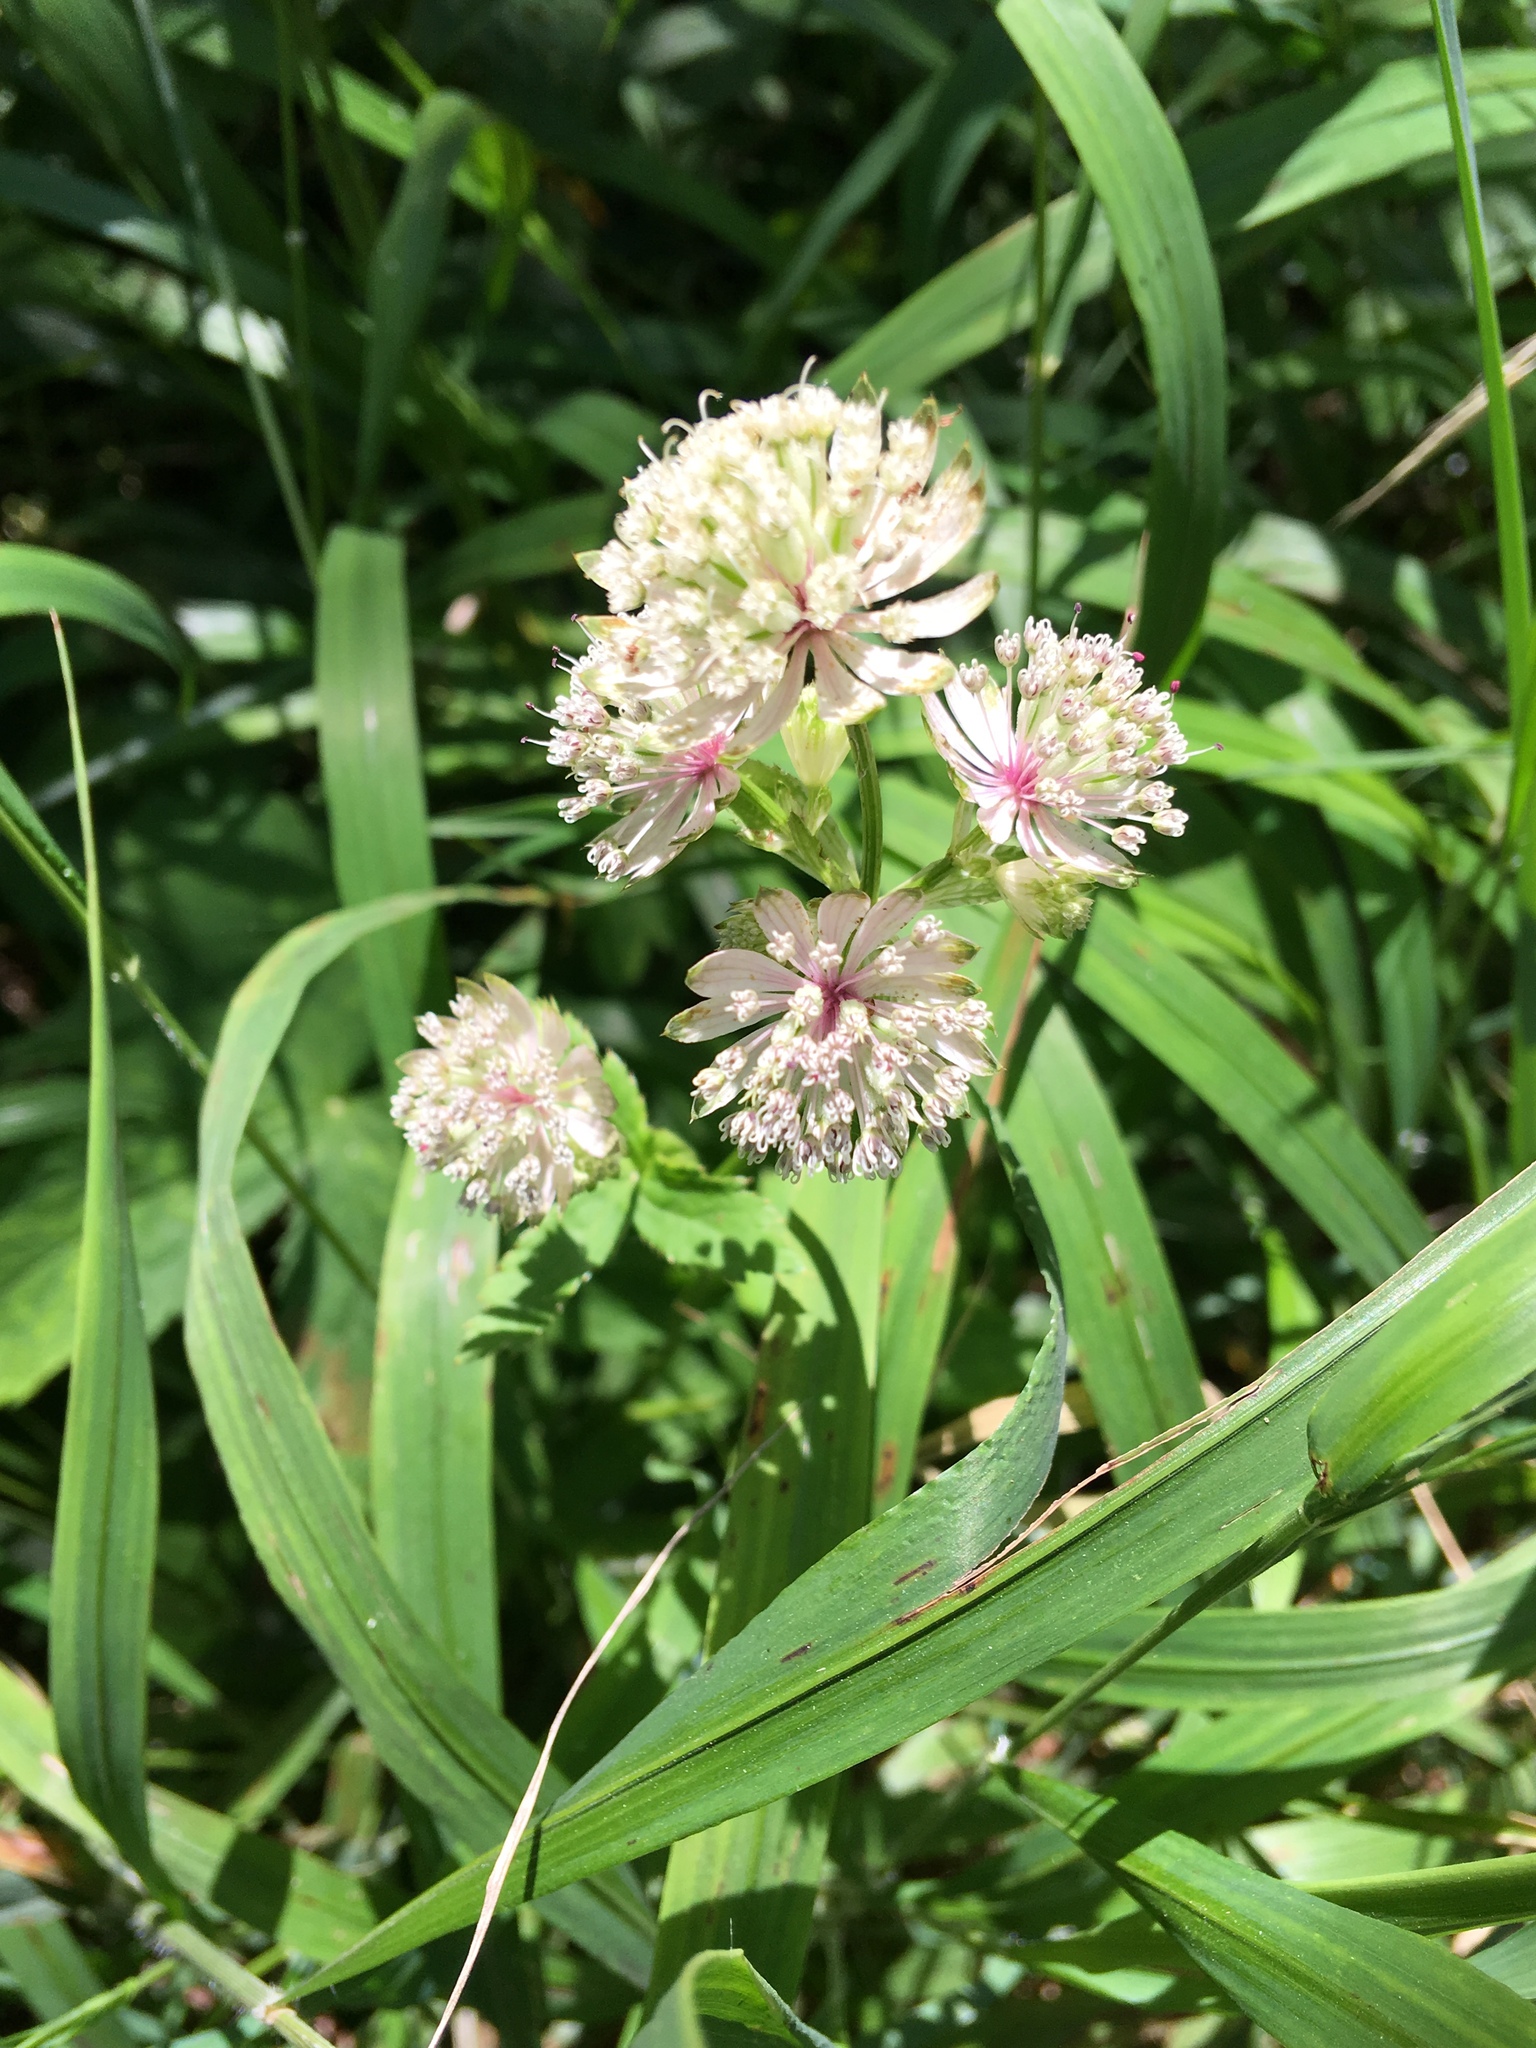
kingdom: Plantae
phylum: Tracheophyta
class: Magnoliopsida
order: Apiales
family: Apiaceae
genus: Astrantia
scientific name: Astrantia major
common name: Greater masterwort
